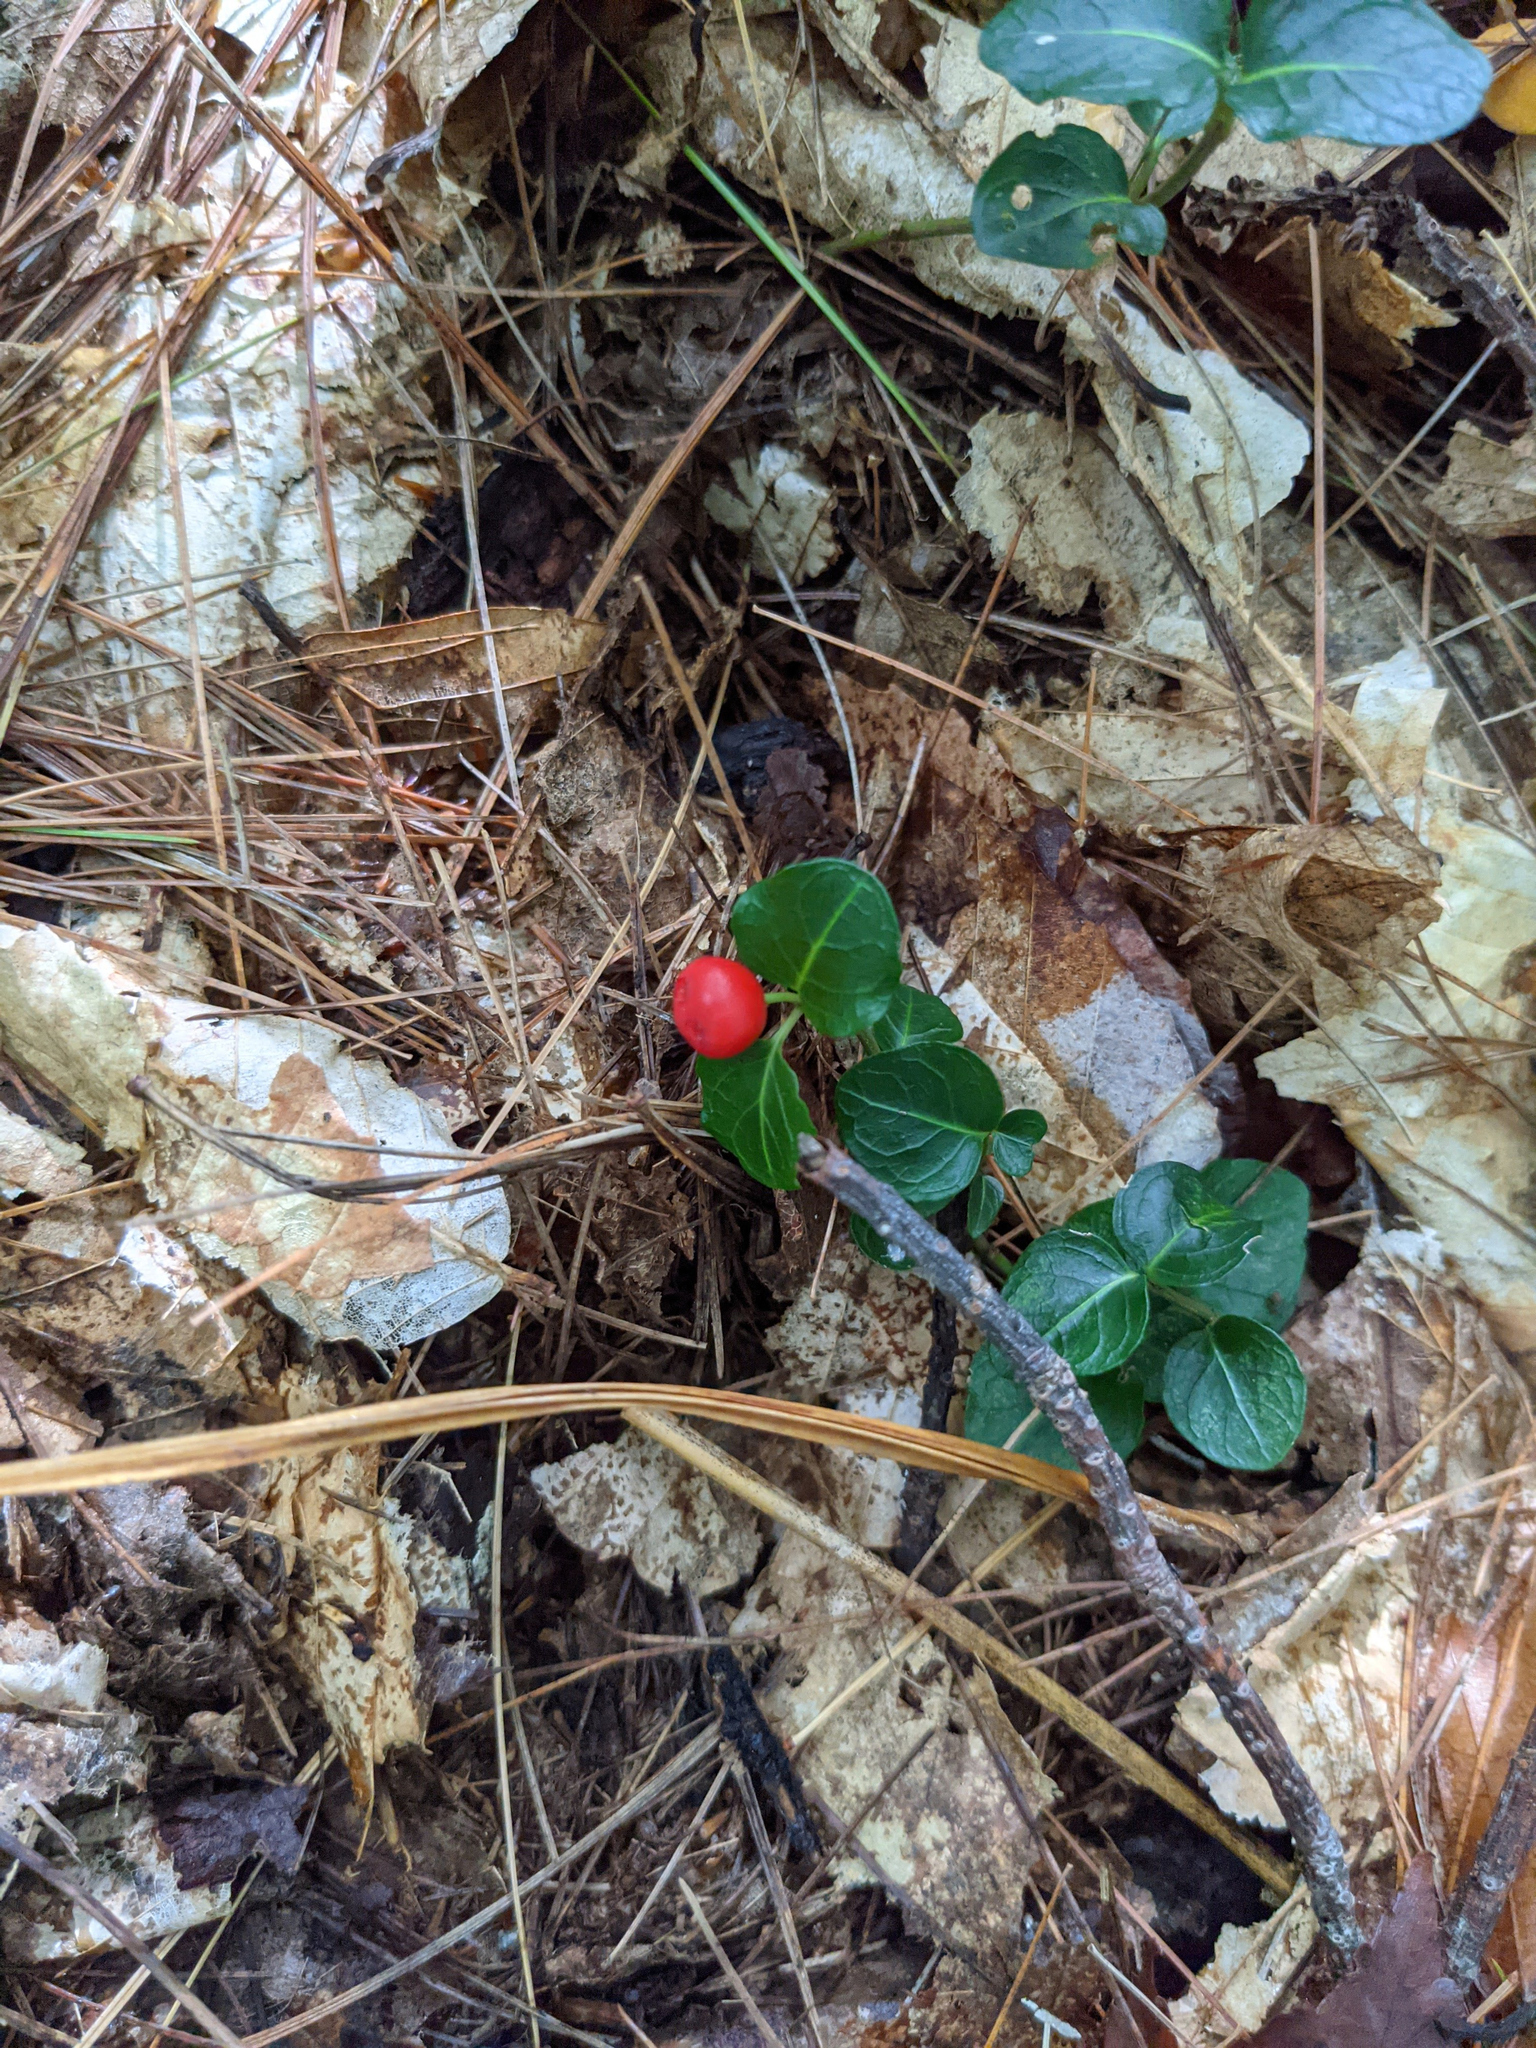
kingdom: Plantae
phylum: Tracheophyta
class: Magnoliopsida
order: Gentianales
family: Rubiaceae
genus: Mitchella
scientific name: Mitchella repens
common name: Partridge-berry
